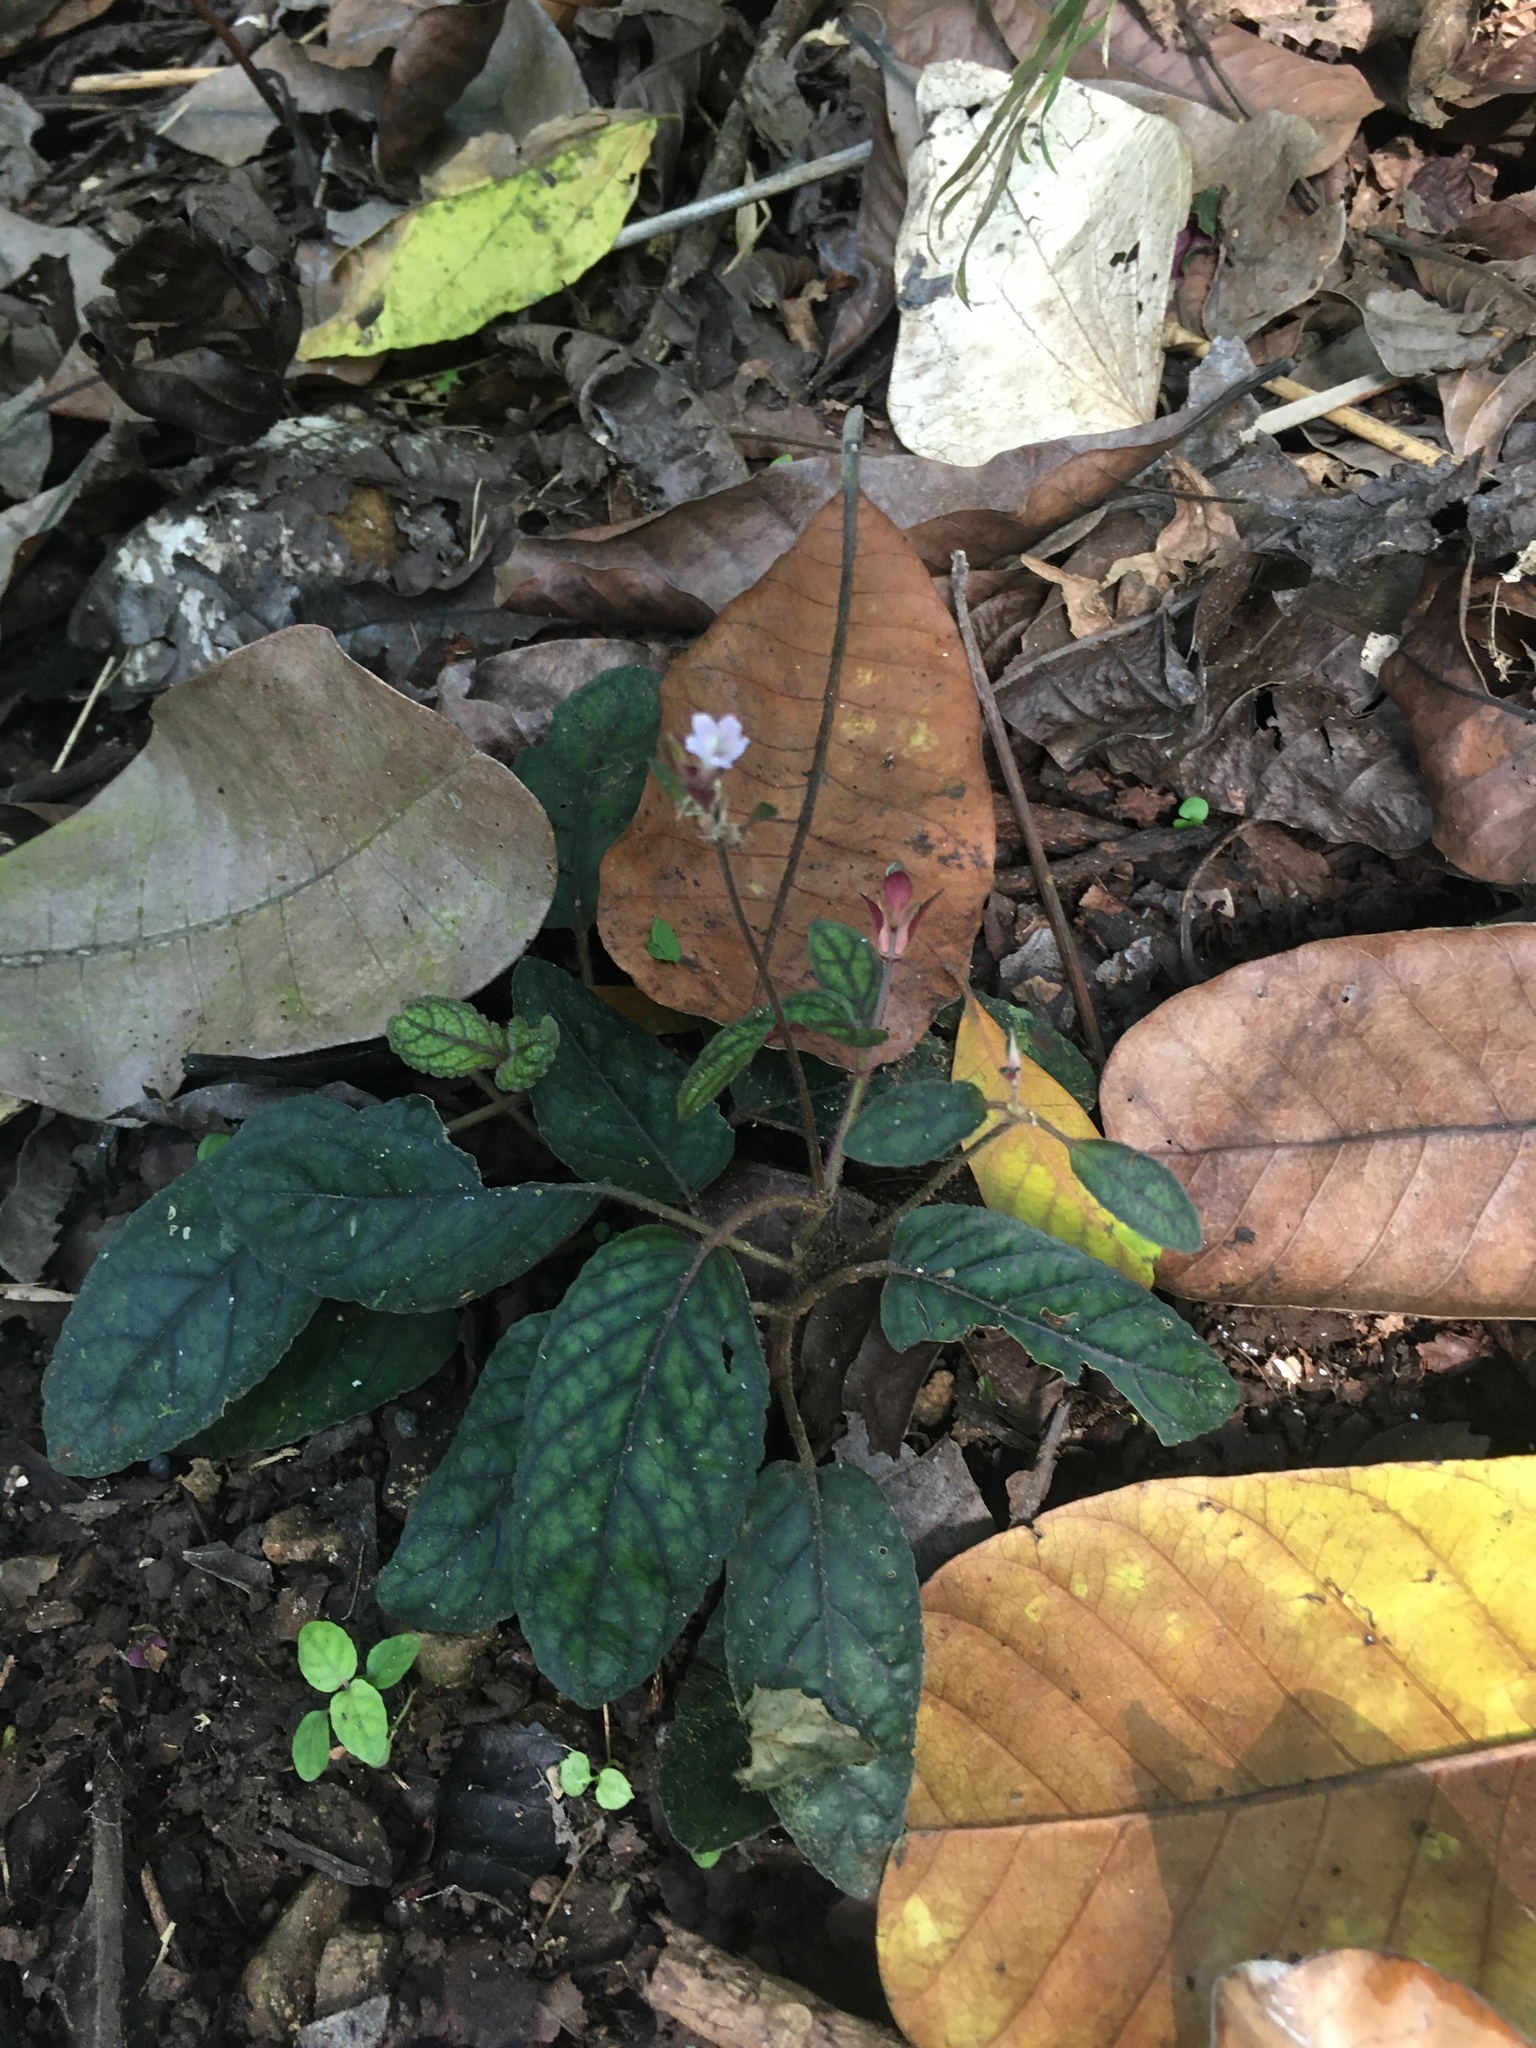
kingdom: Plantae
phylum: Tracheophyta
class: Magnoliopsida
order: Lamiales
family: Acanthaceae
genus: Strobilanthes
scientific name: Strobilanthes reptans
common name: Acanthaceae
